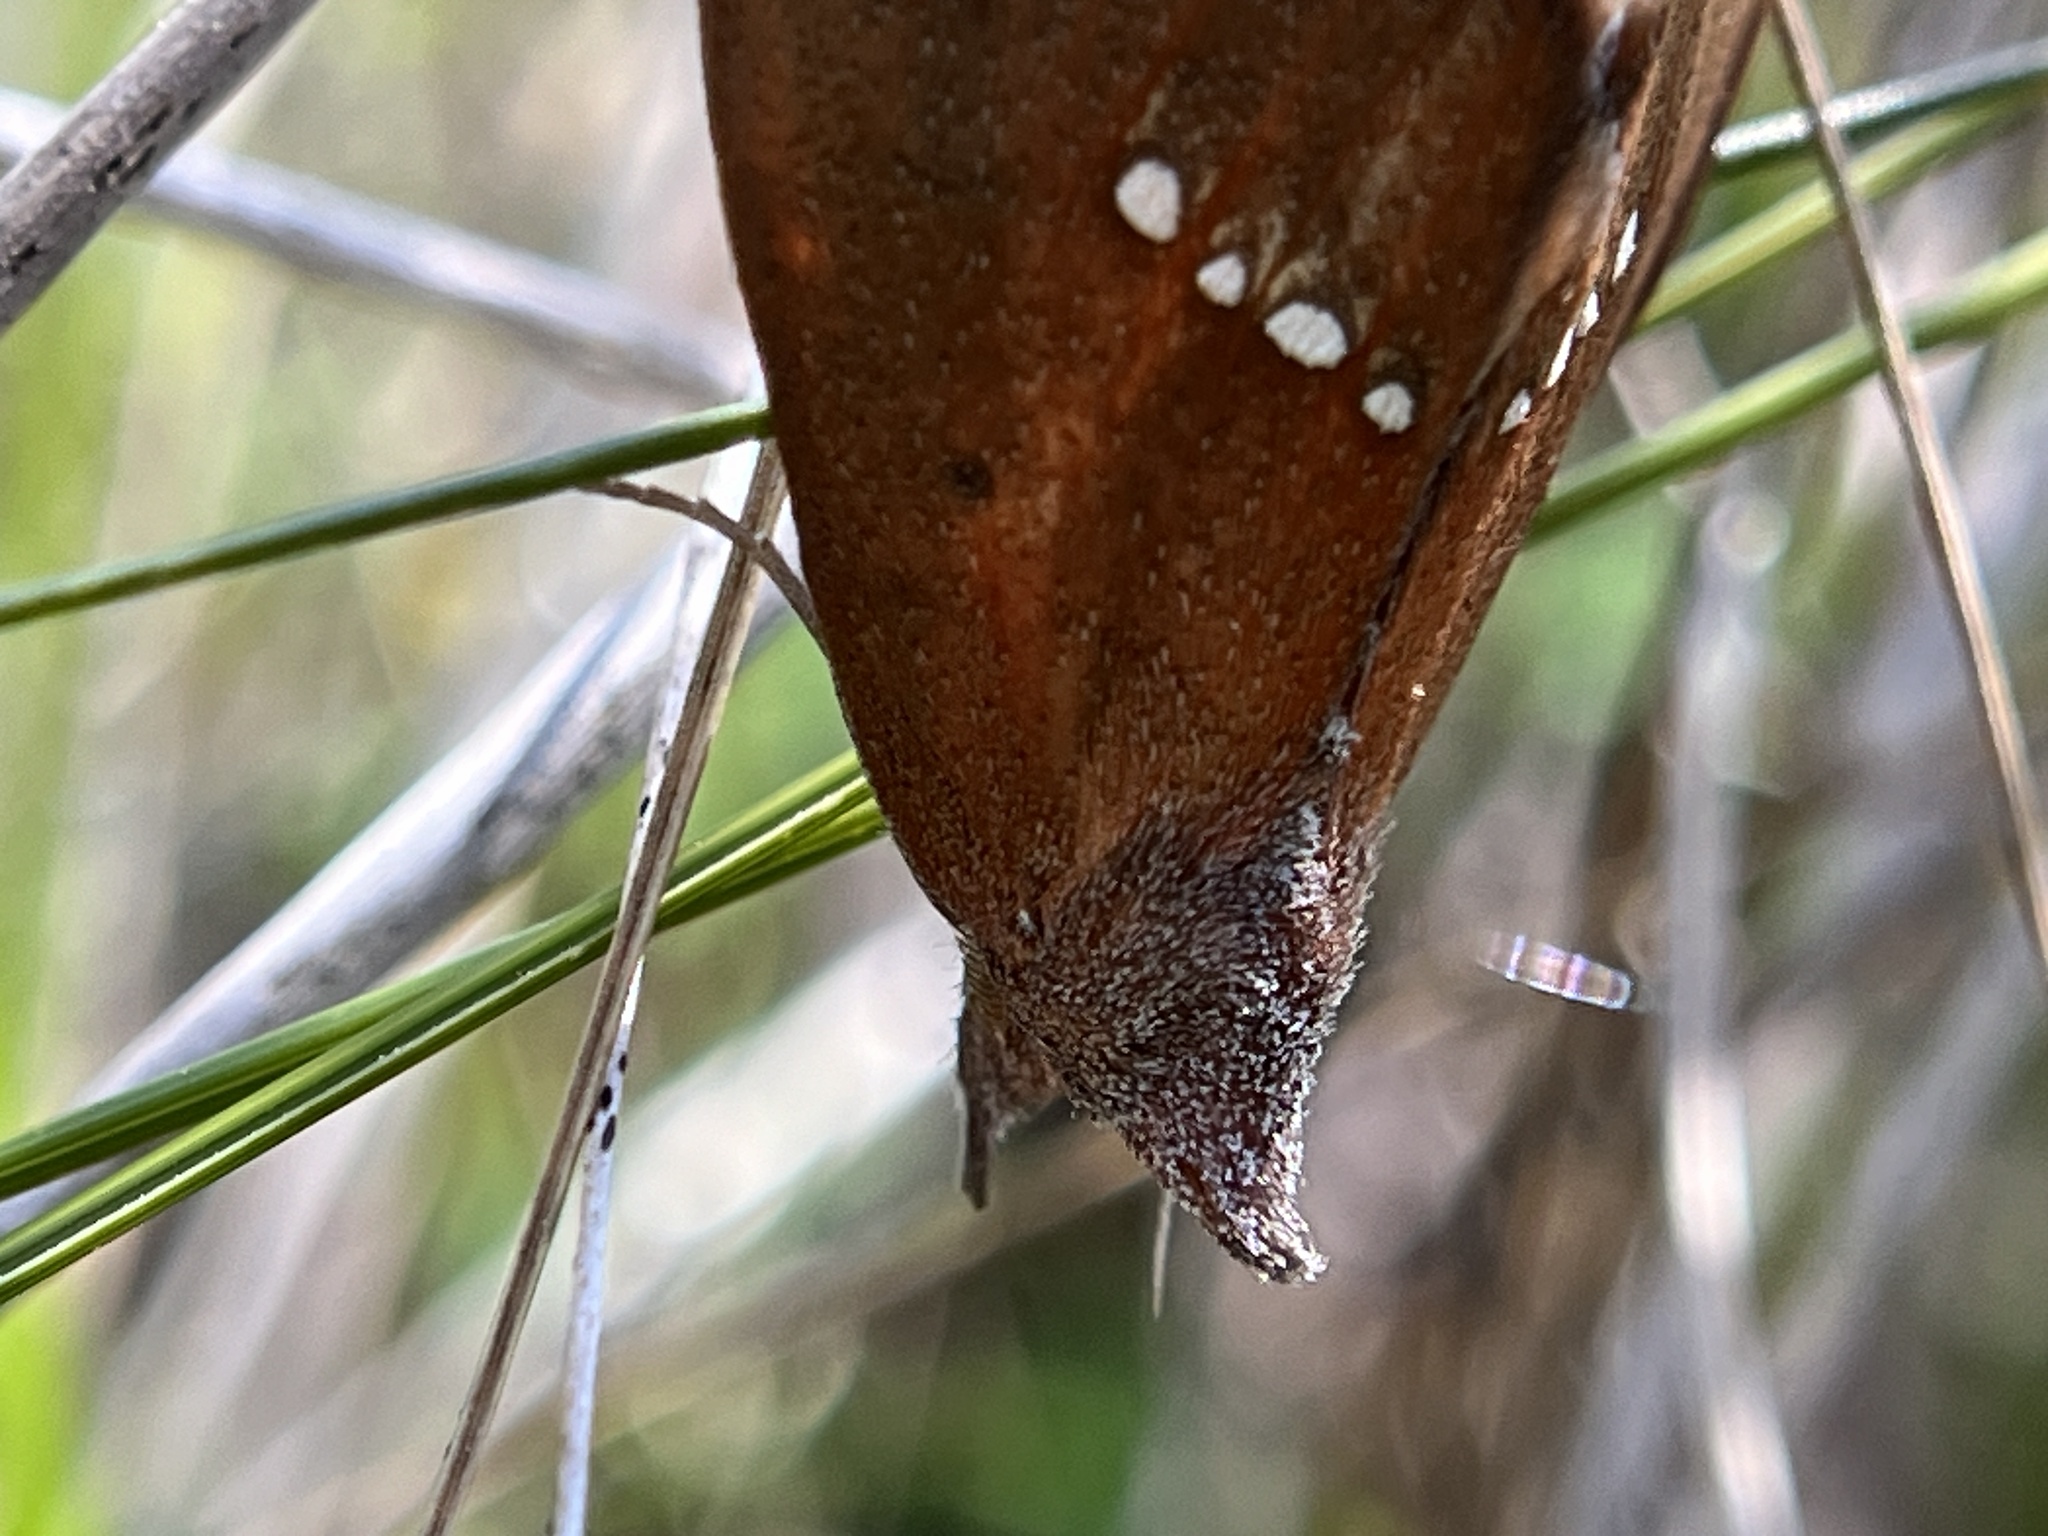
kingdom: Animalia
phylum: Arthropoda
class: Insecta
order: Lepidoptera
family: Erebidae
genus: Hypsoropha
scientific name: Hypsoropha monilis
